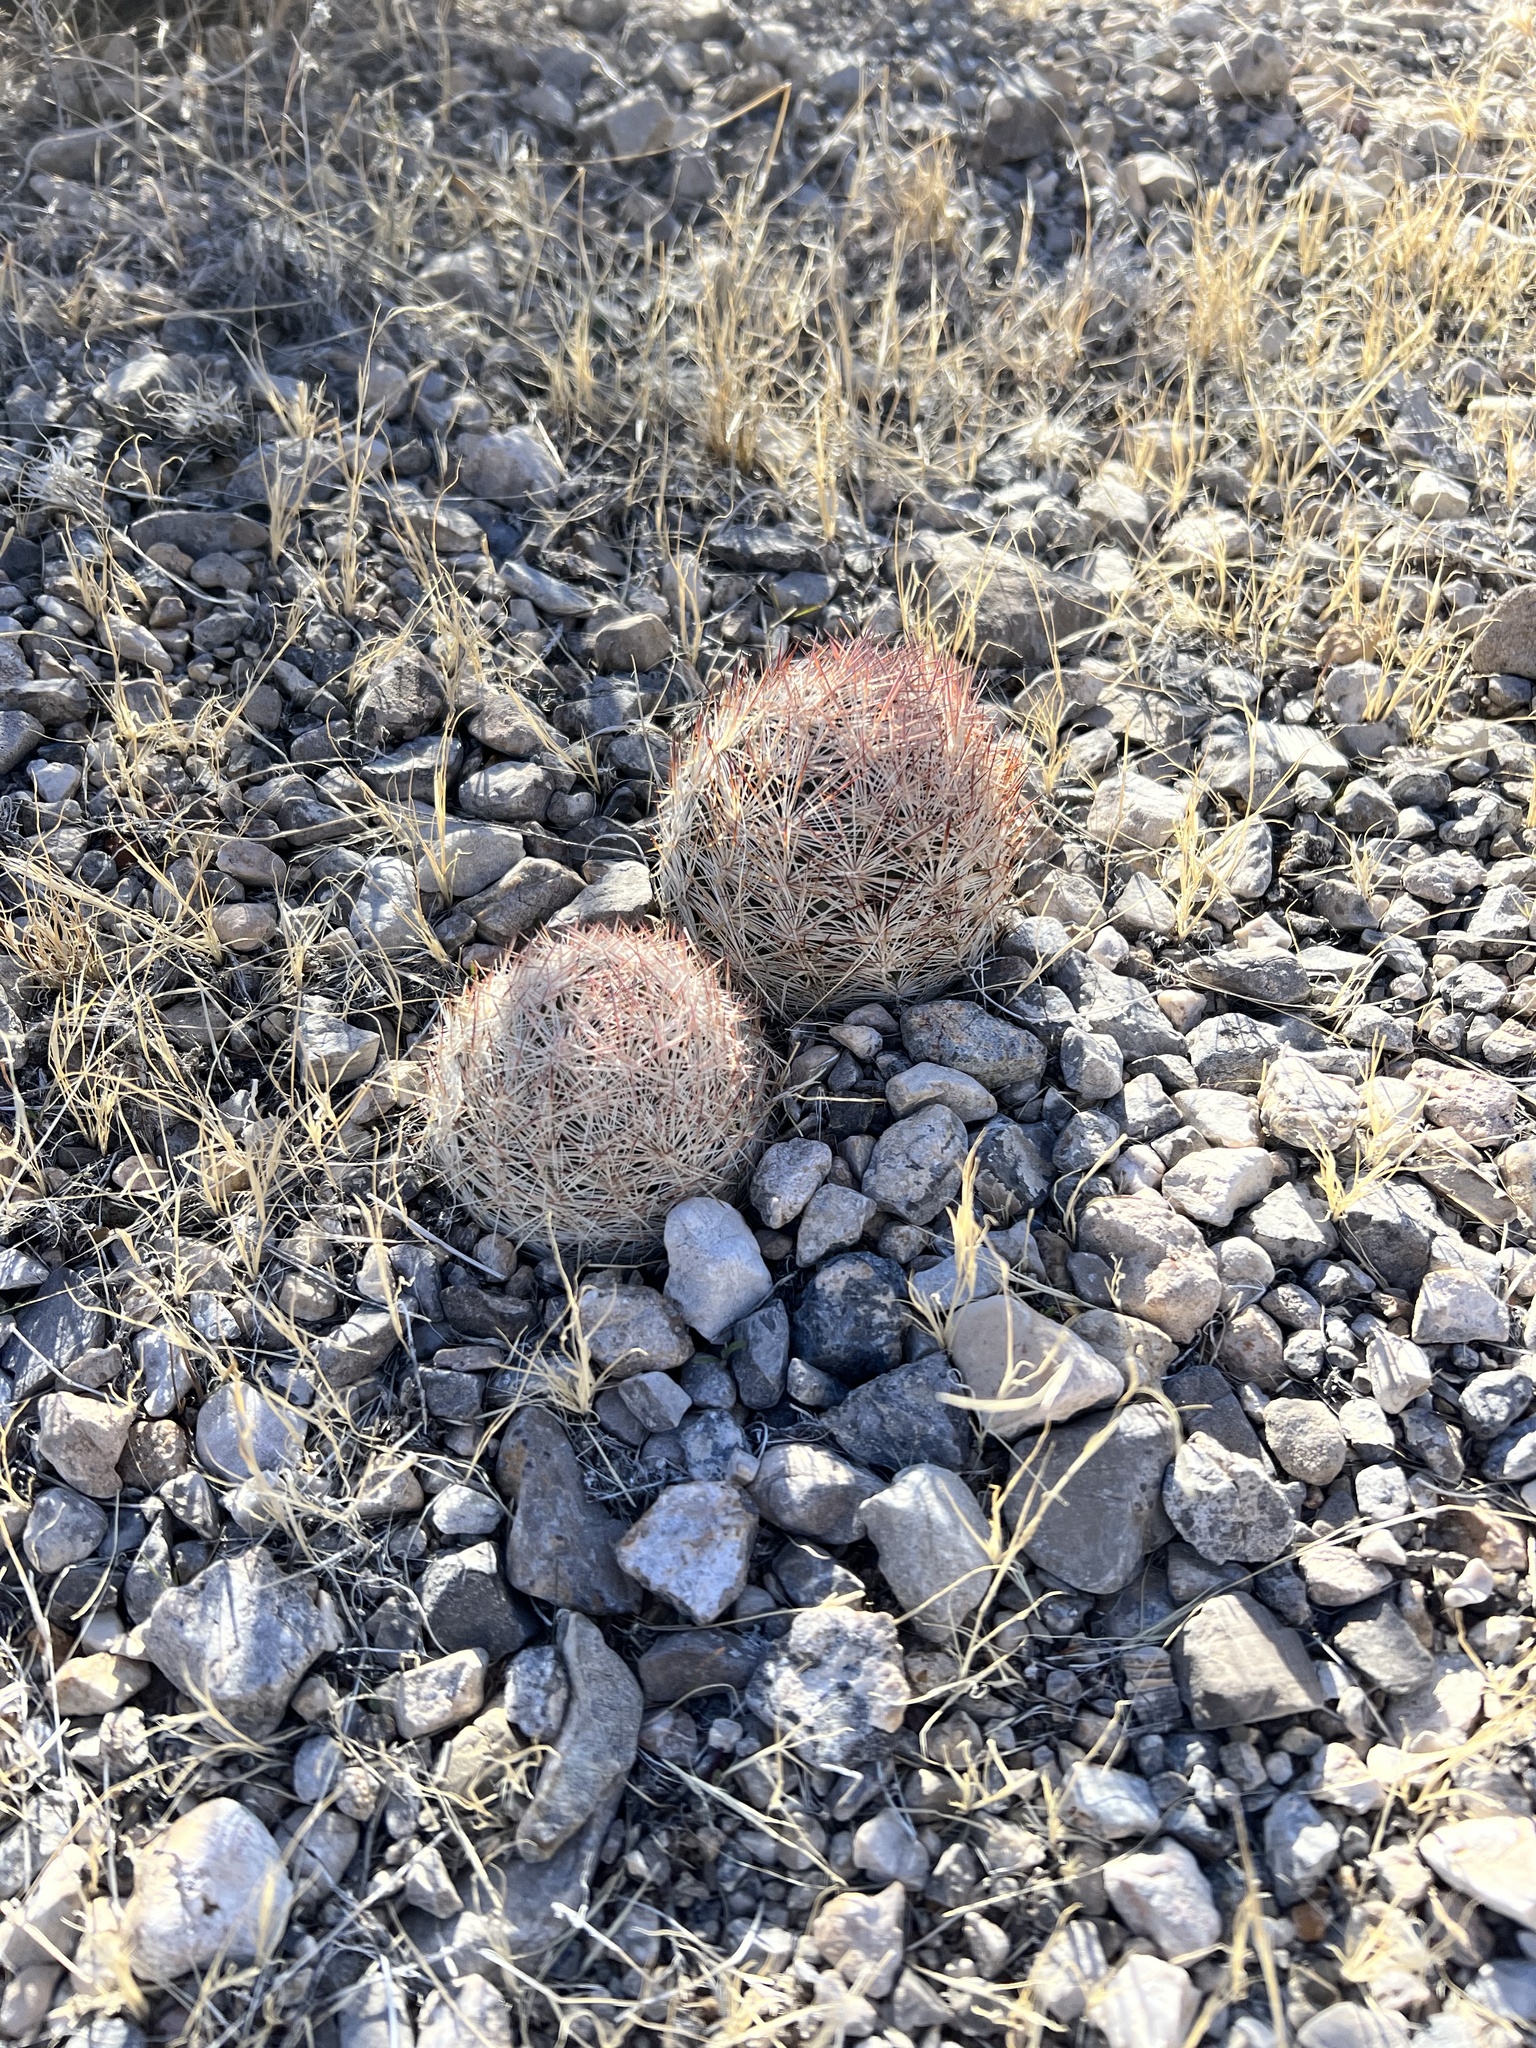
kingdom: Plantae
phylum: Tracheophyta
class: Magnoliopsida
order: Caryophyllales
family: Cactaceae
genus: Pelecyphora
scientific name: Pelecyphora dasyacantha
